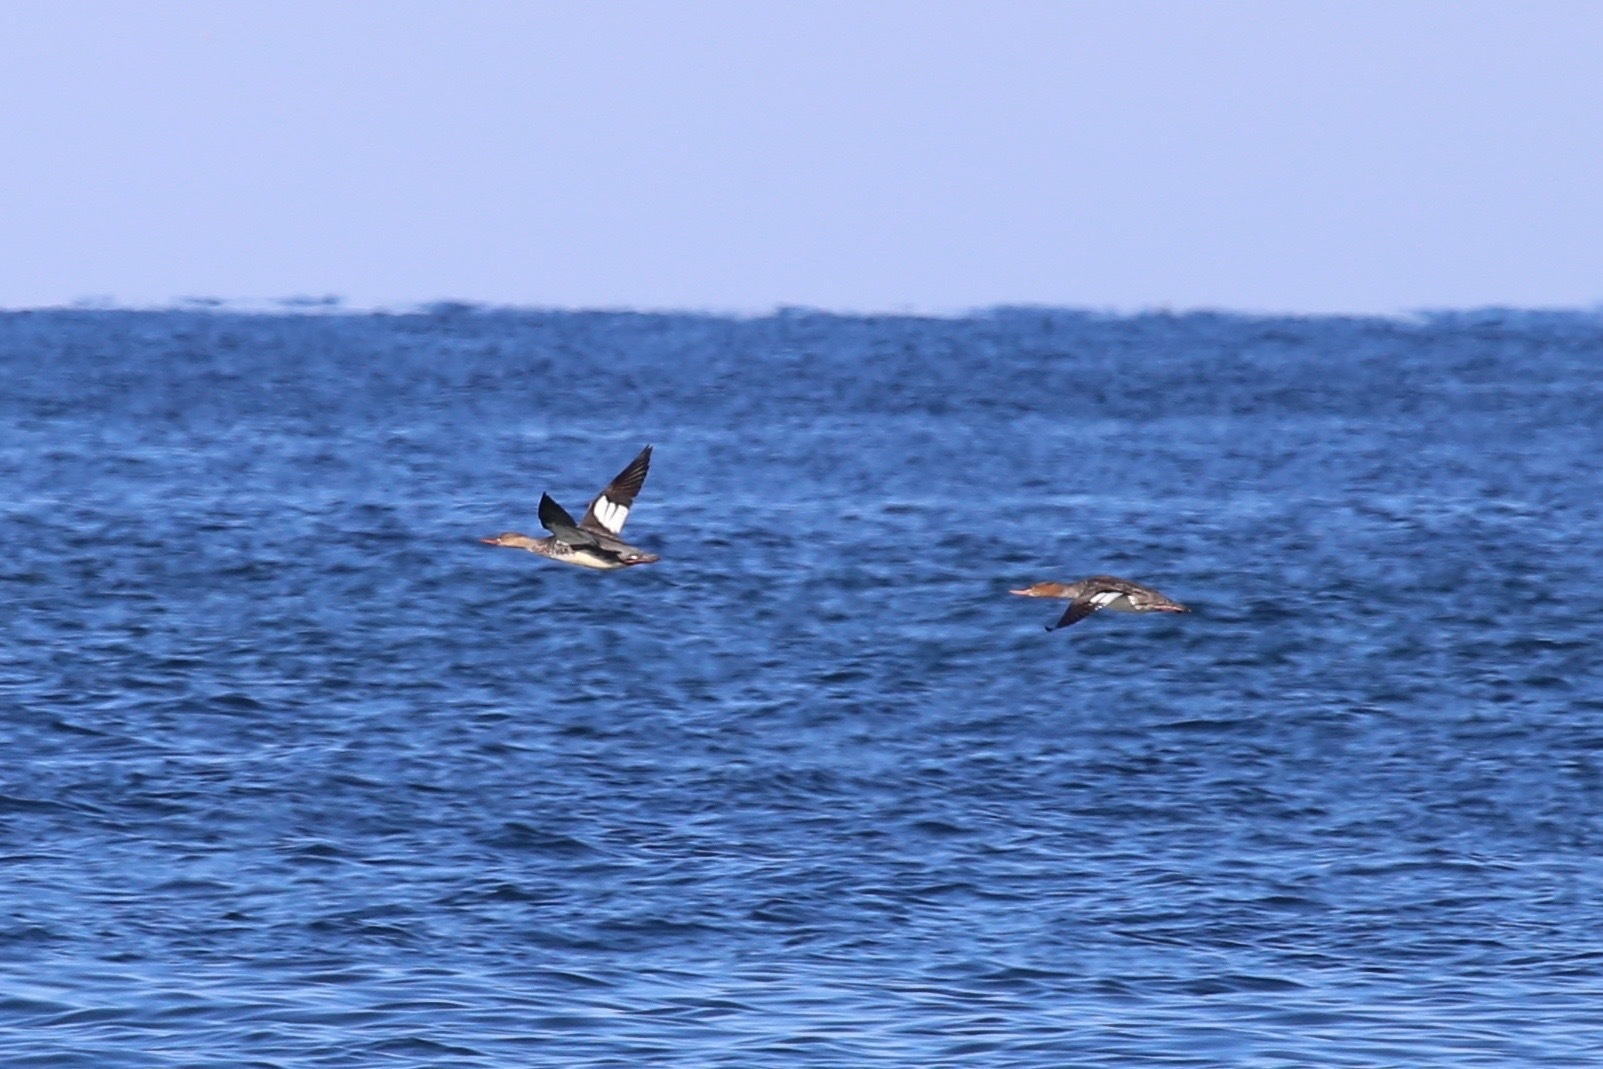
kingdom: Animalia
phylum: Chordata
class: Aves
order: Anseriformes
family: Anatidae
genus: Mergus
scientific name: Mergus serrator
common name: Red-breasted merganser
